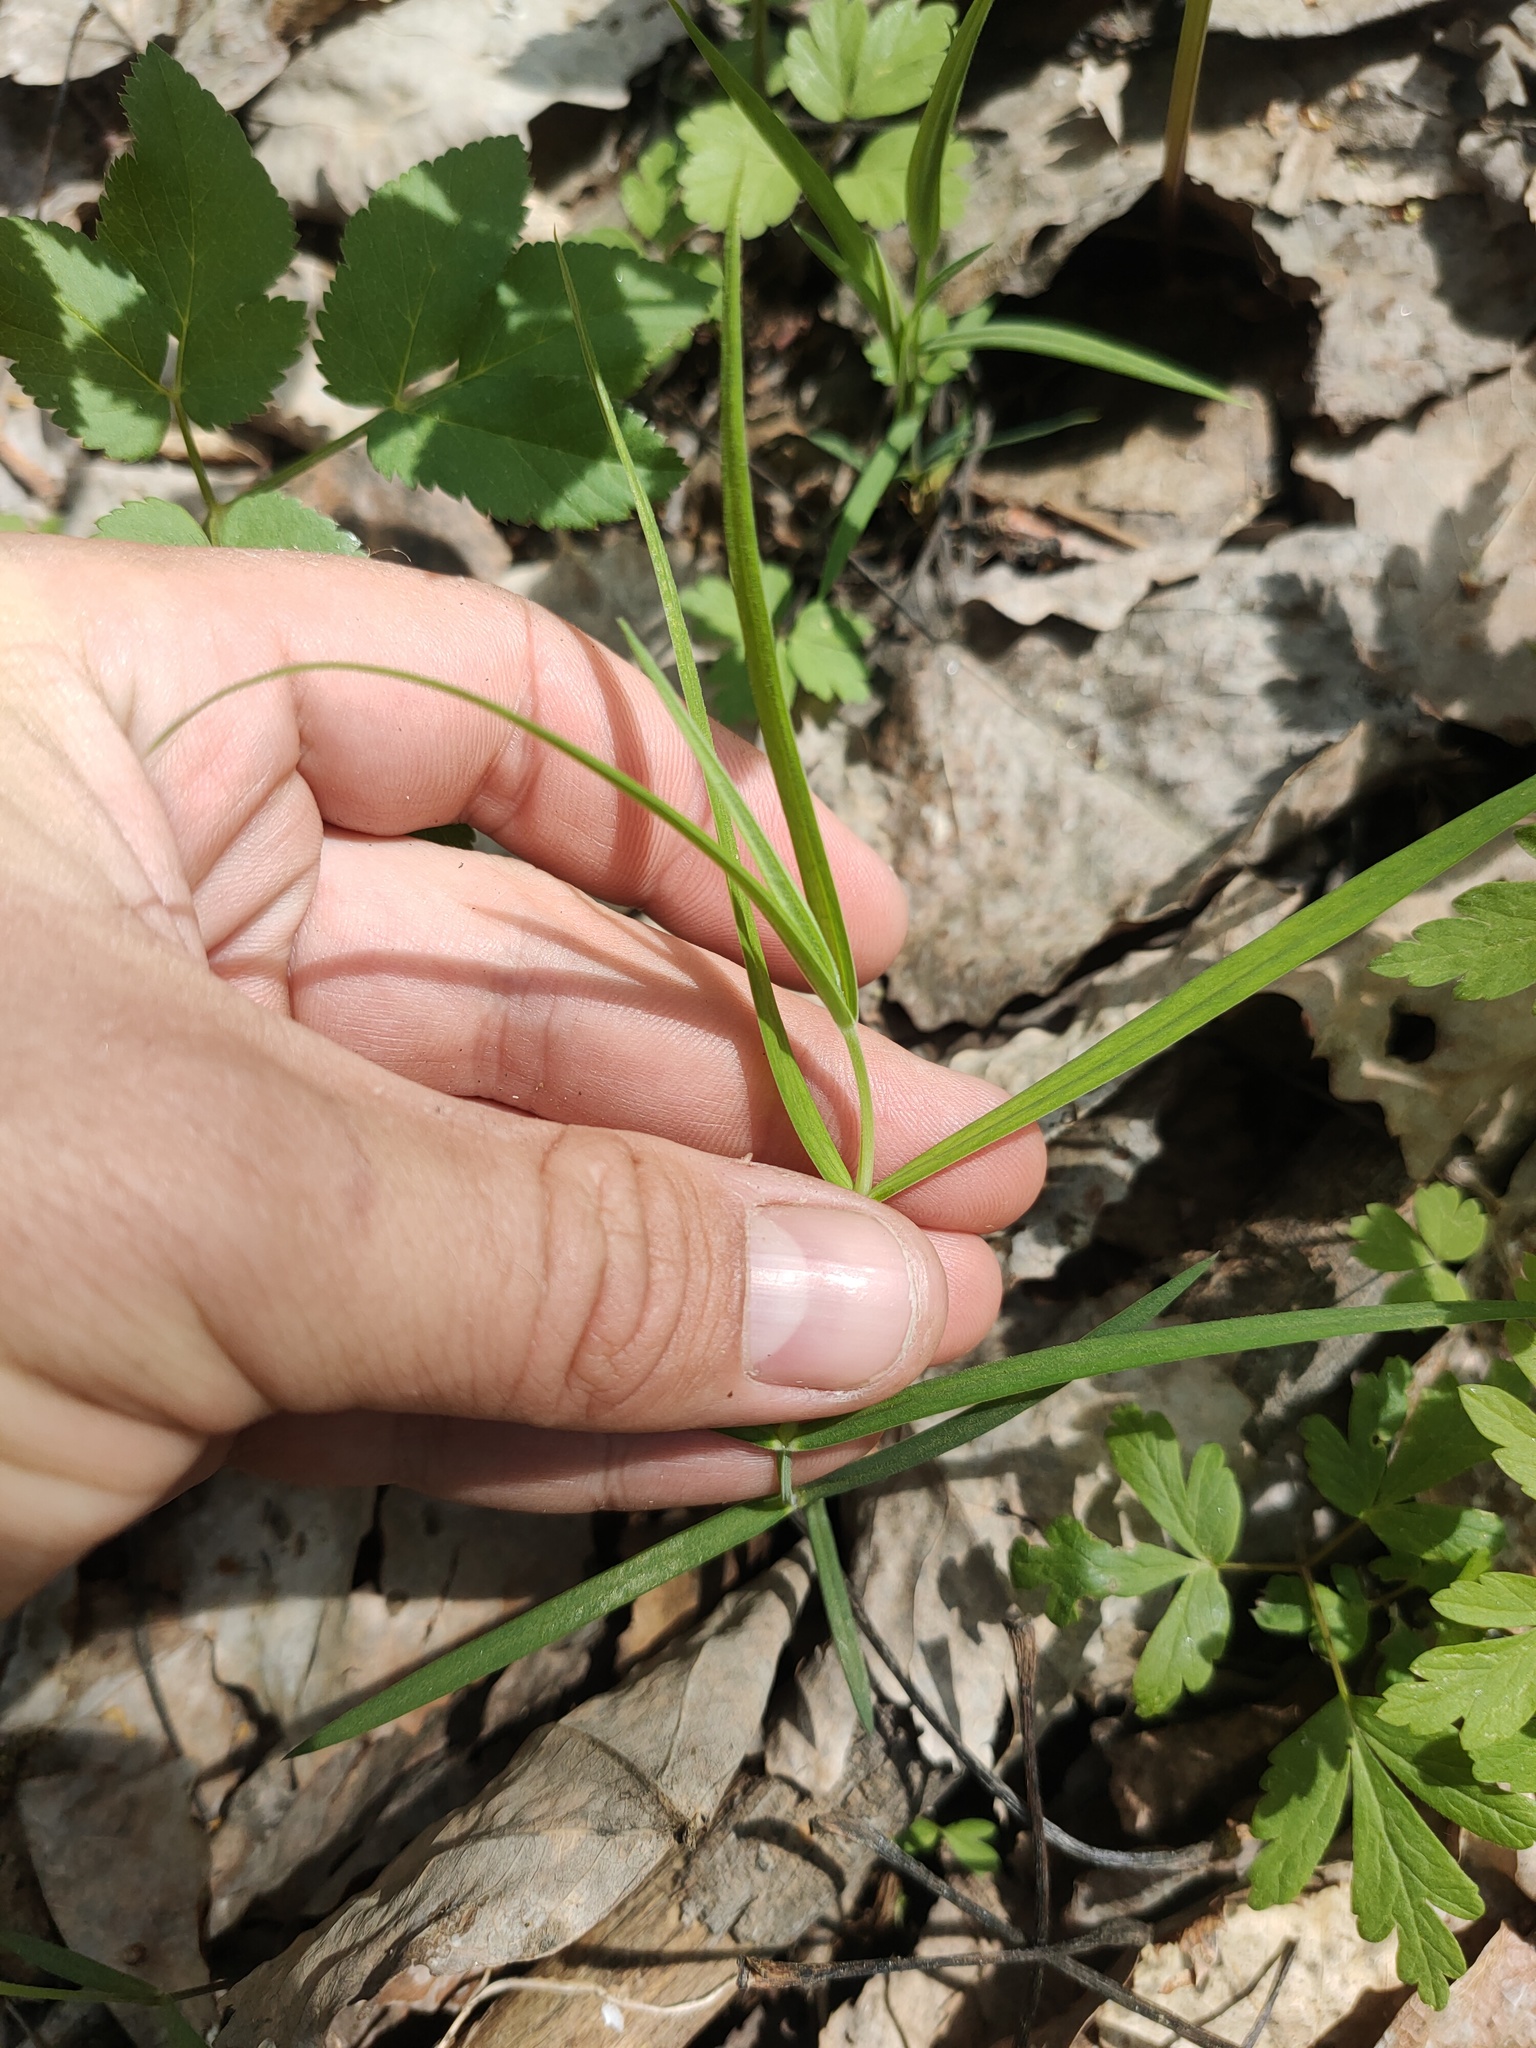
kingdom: Plantae
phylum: Tracheophyta
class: Magnoliopsida
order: Caryophyllales
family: Caryophyllaceae
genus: Rabelera
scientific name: Rabelera holostea
